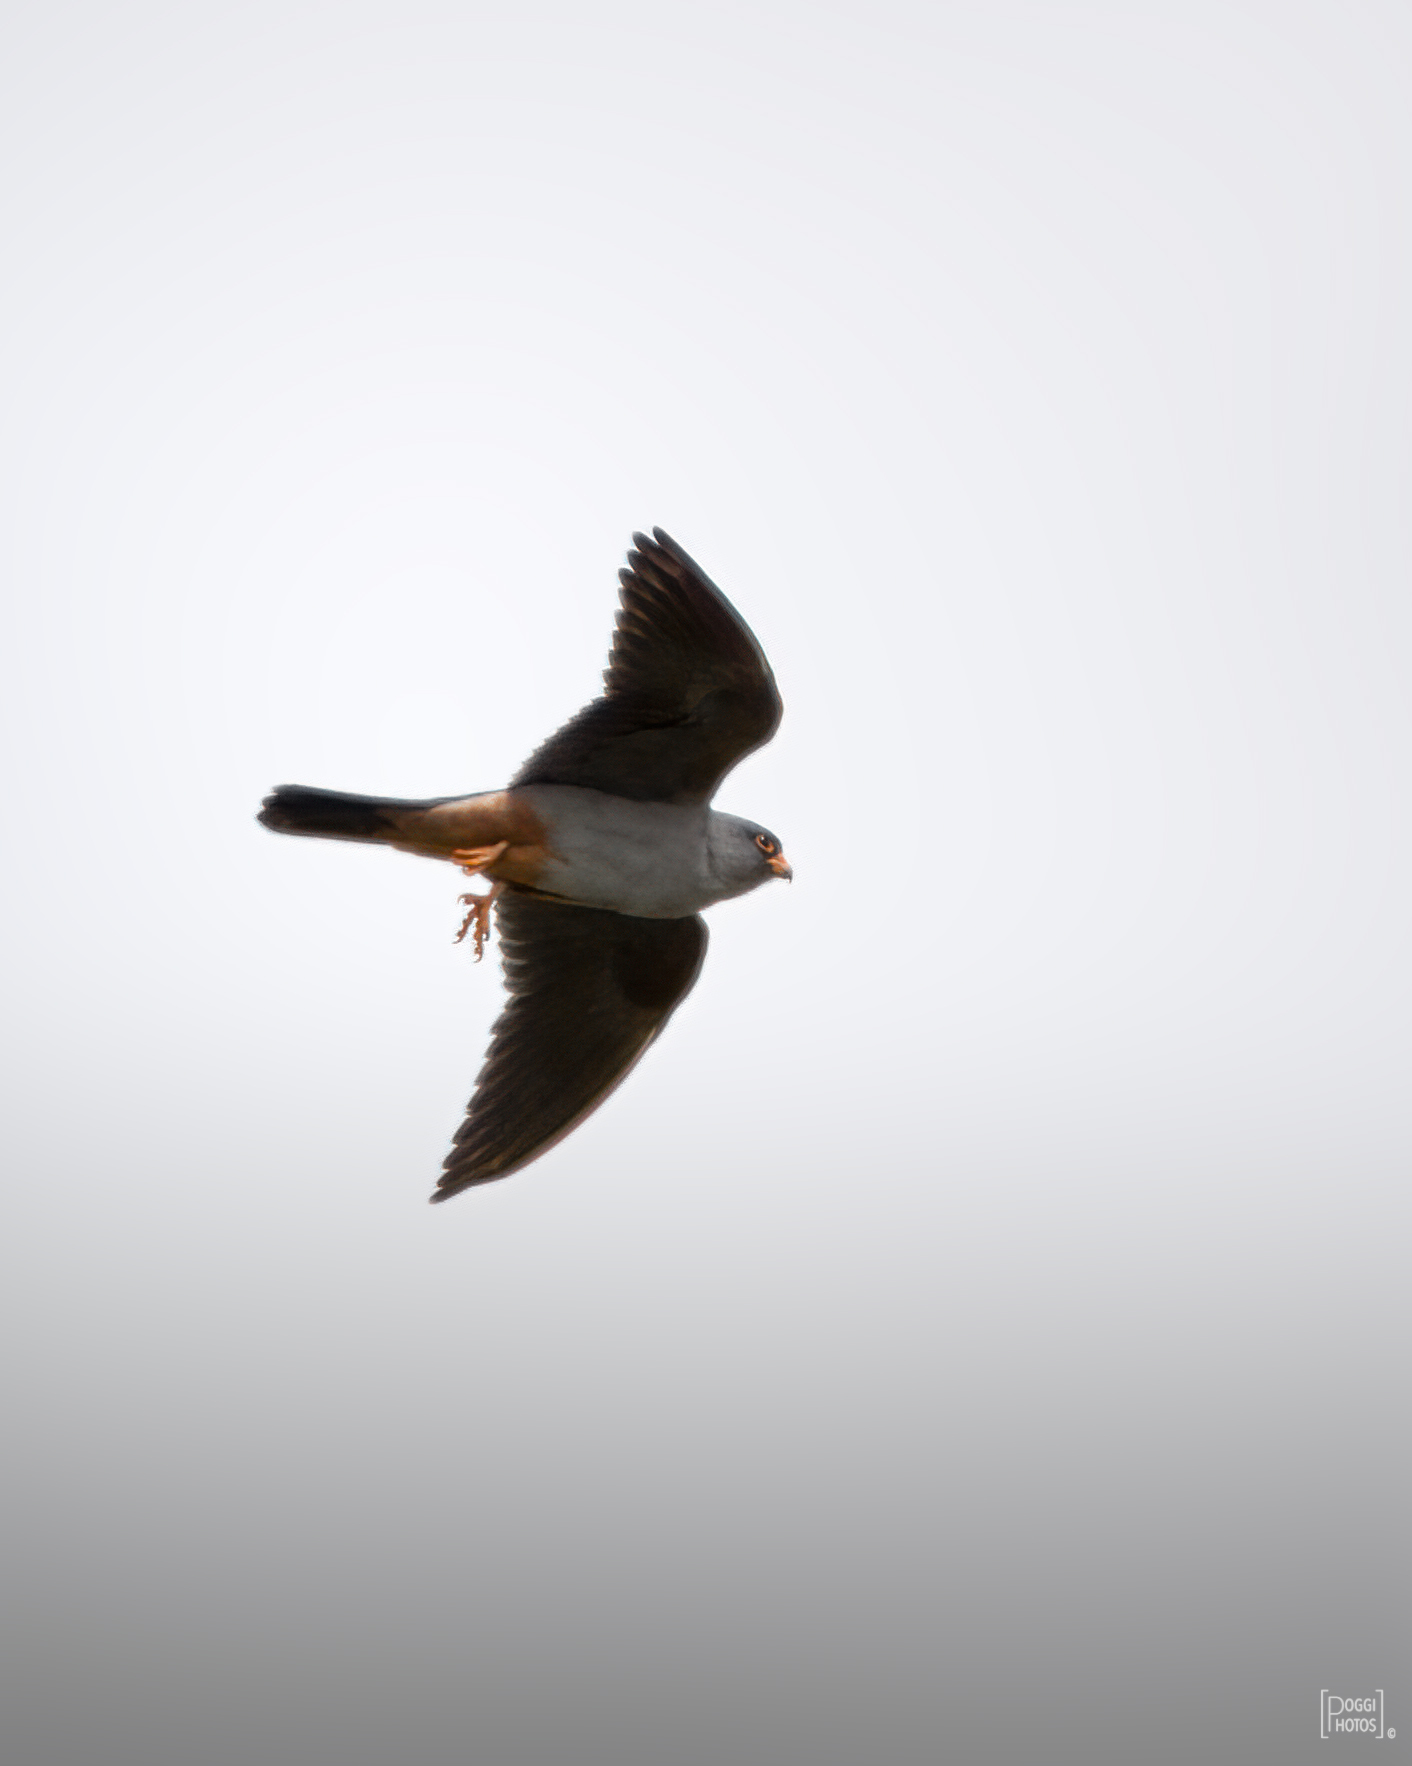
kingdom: Animalia
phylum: Chordata
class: Aves
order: Falconiformes
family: Falconidae
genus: Falco
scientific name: Falco vespertinus
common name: Red-footed falcon
